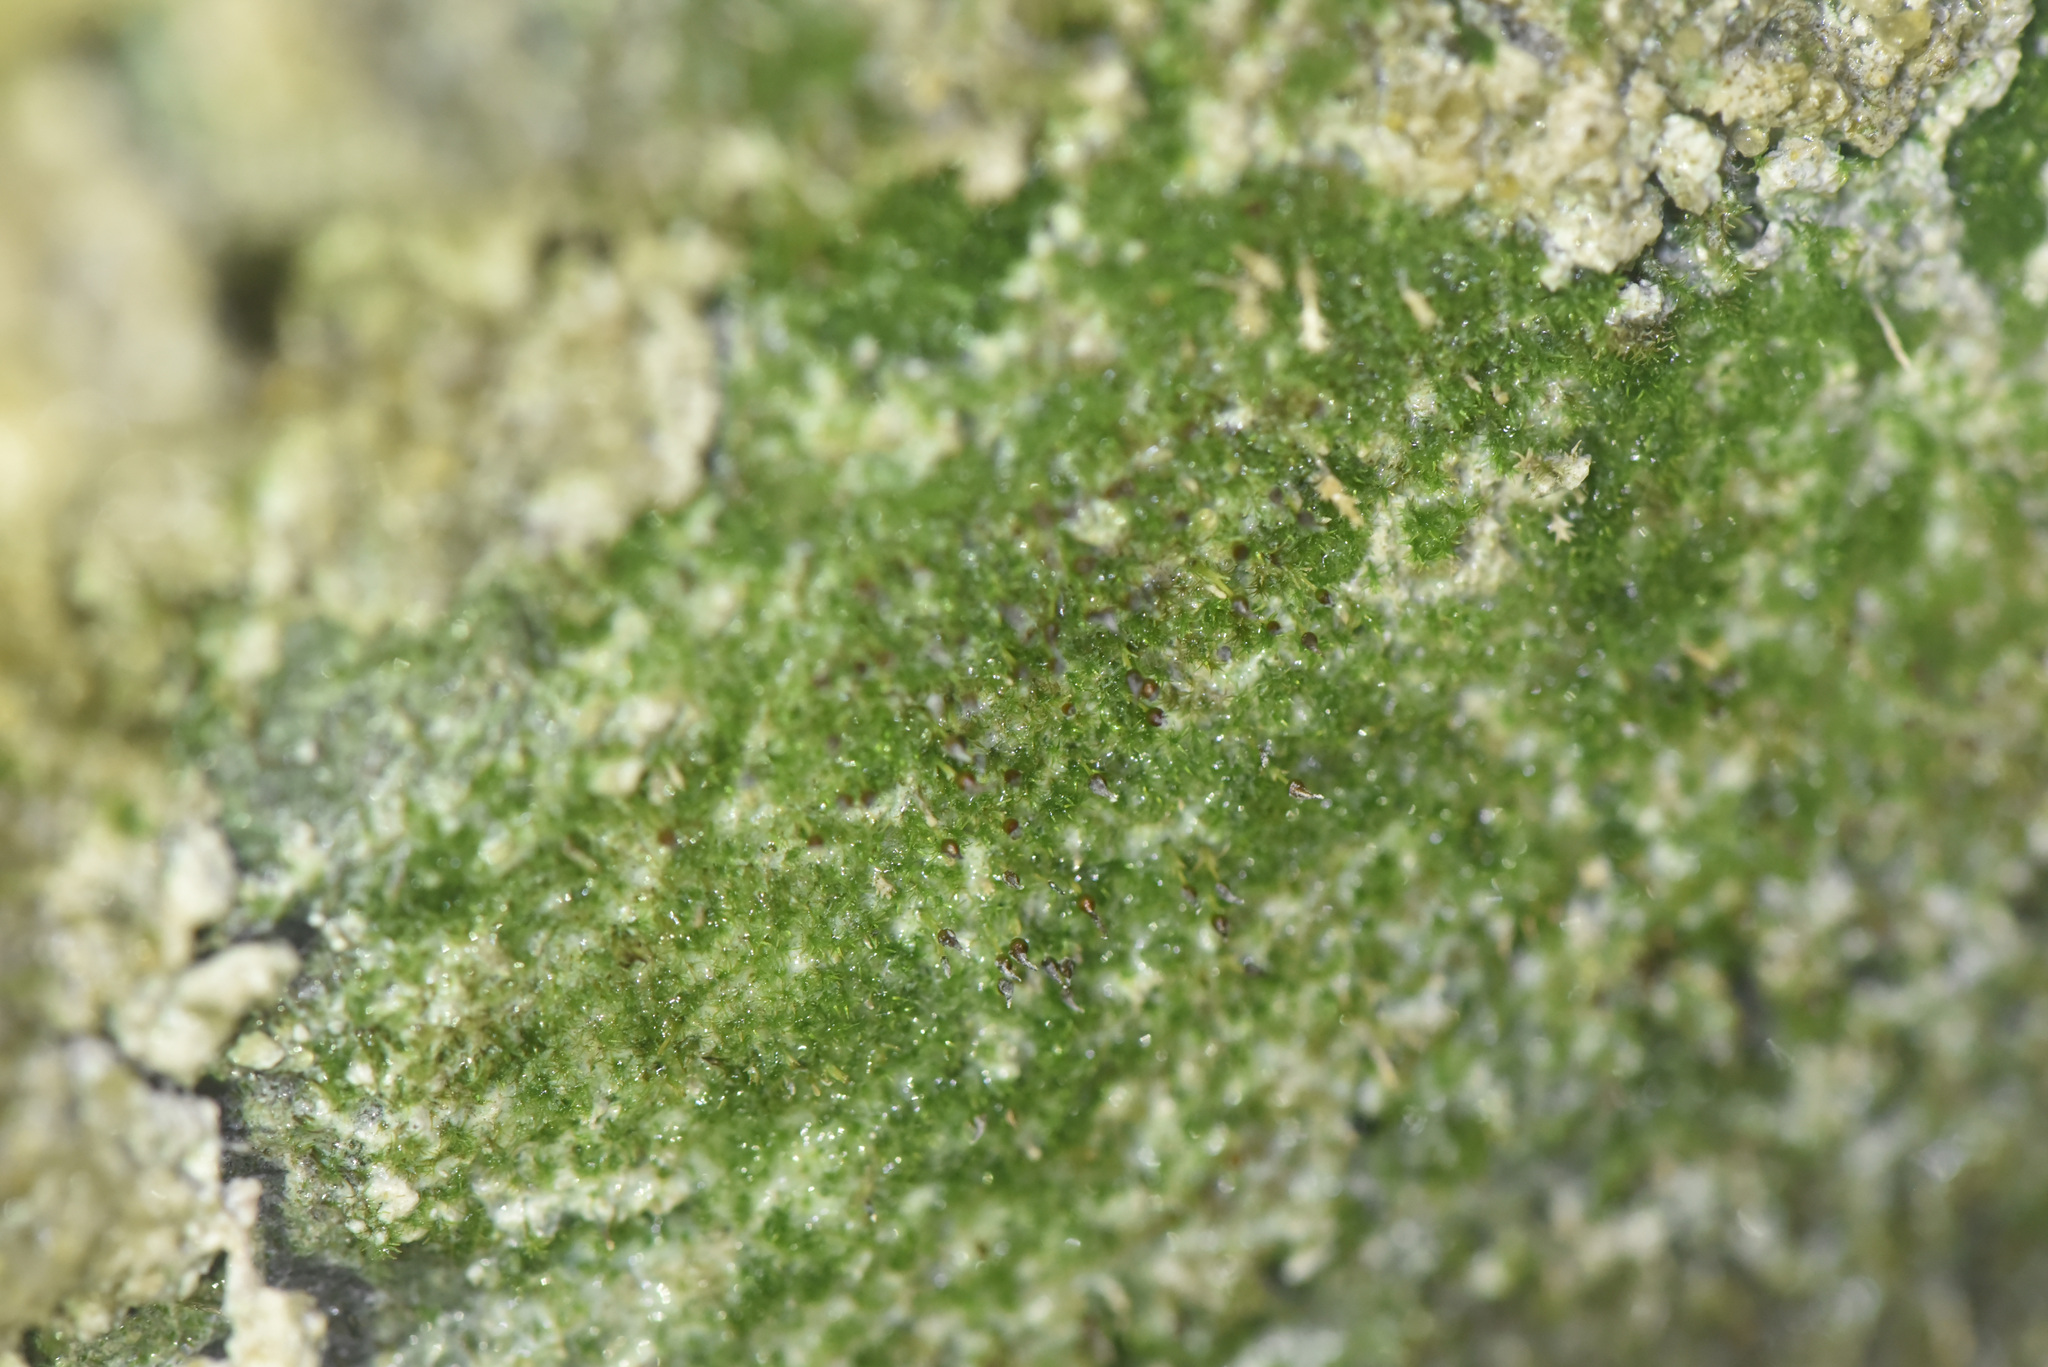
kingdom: Plantae
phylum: Bryophyta
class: Bryopsida
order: Grimmiales
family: Seligeriaceae
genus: Seligeria
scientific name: Seligeria donniana
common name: Donn's bristle moss
